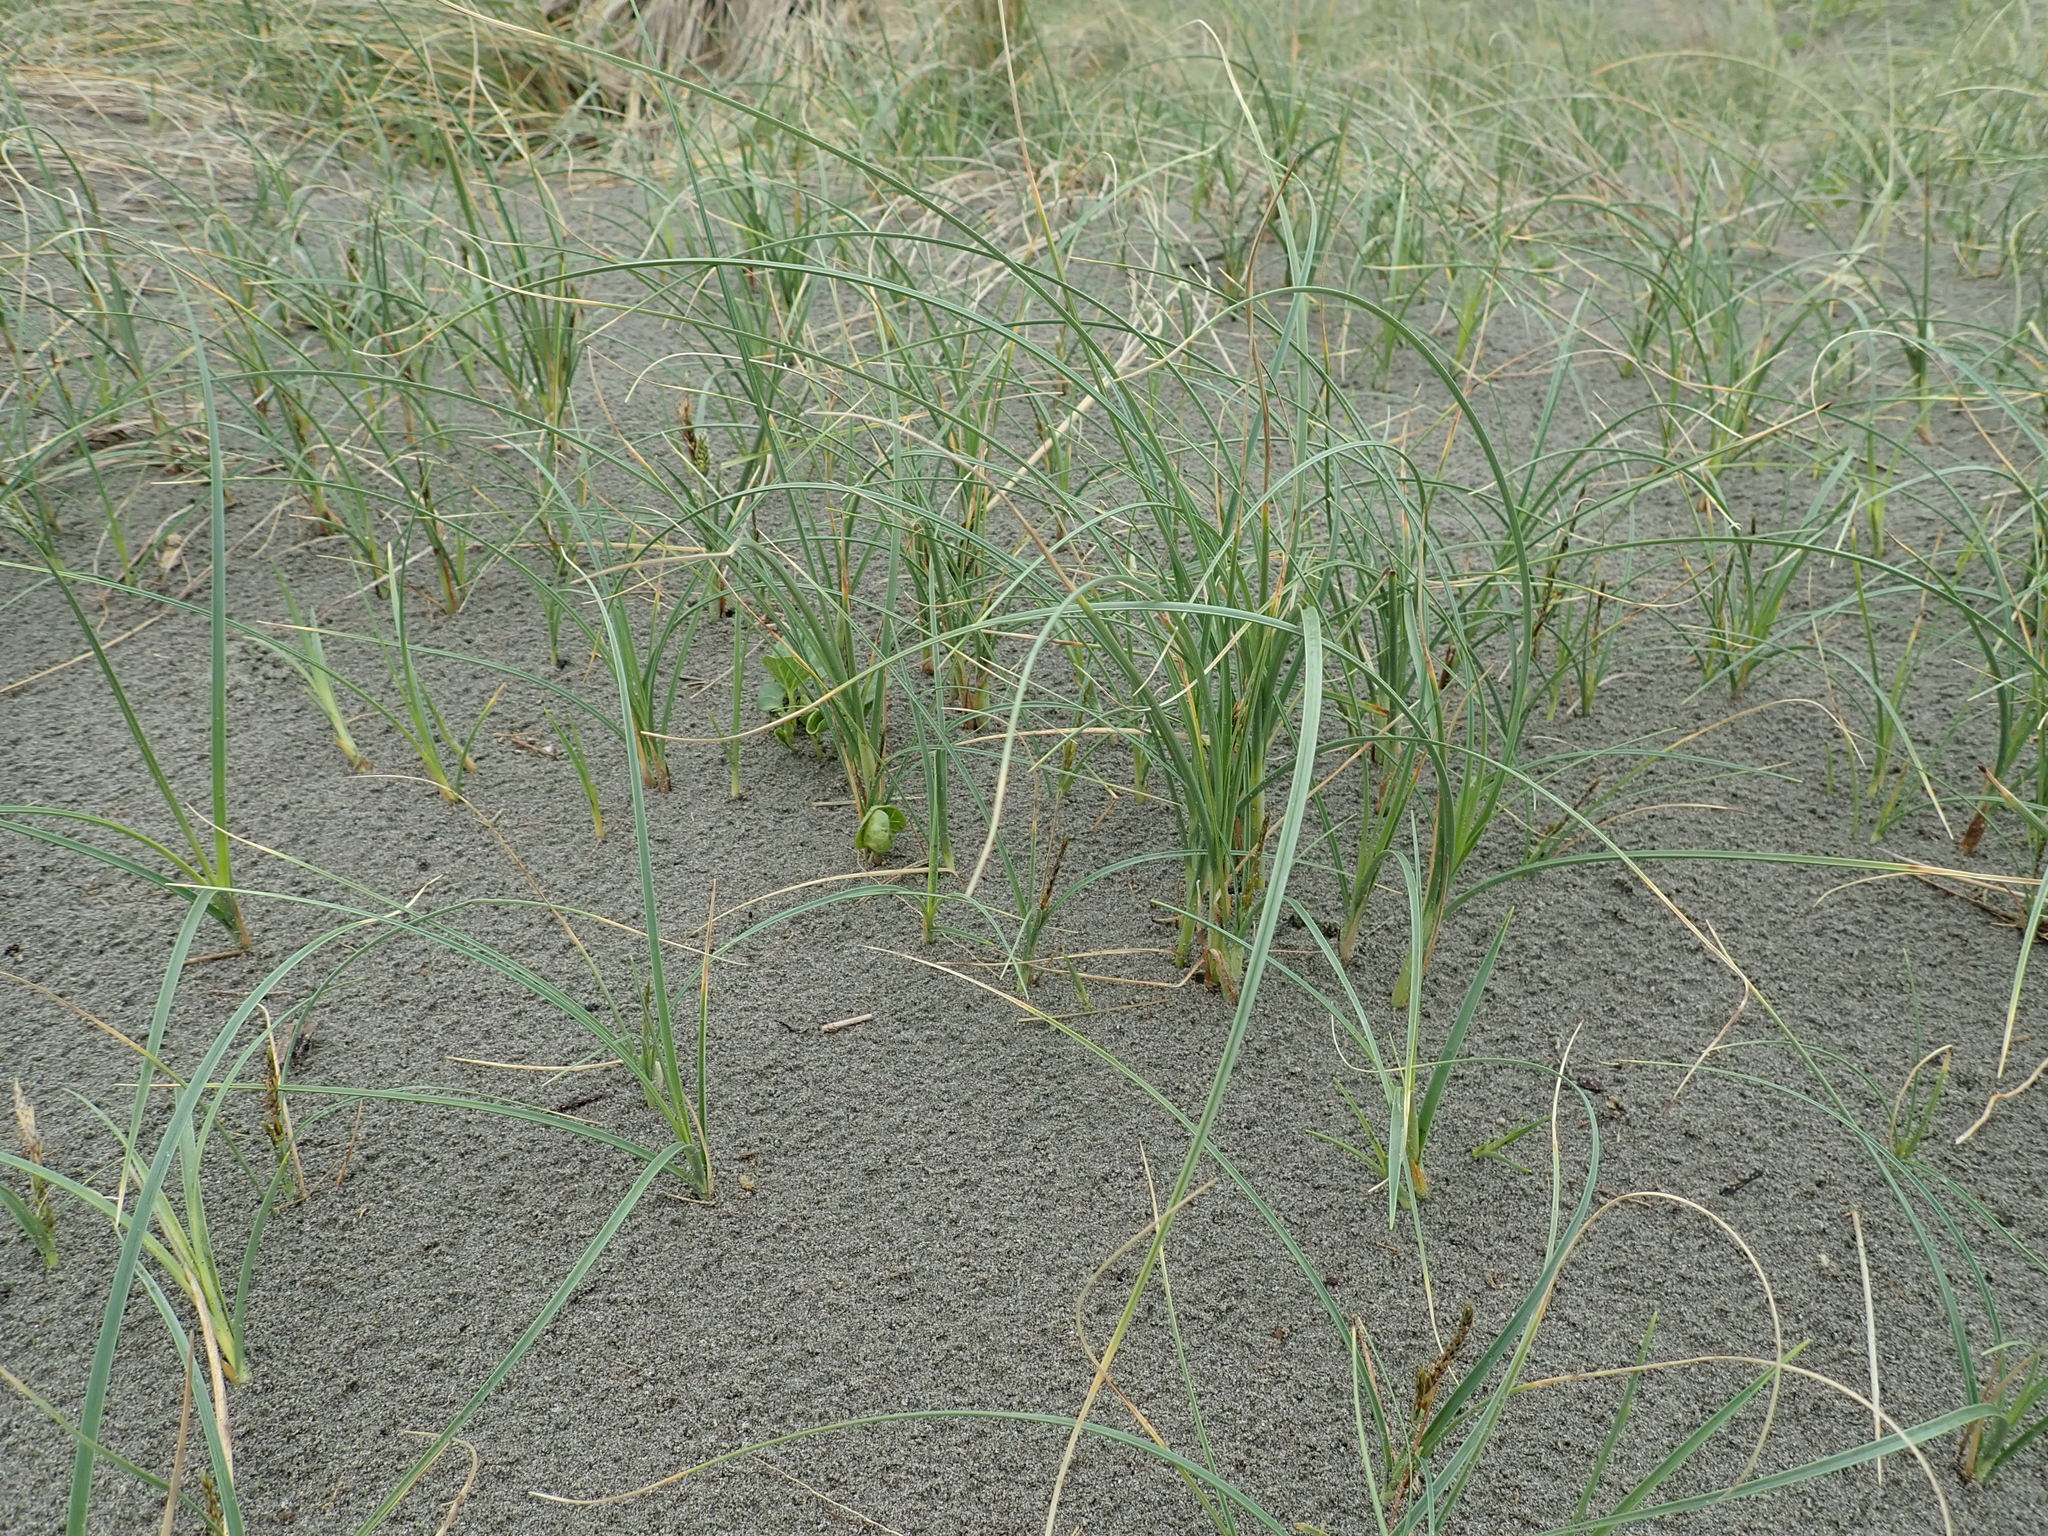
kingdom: Plantae
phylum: Tracheophyta
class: Liliopsida
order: Poales
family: Cyperaceae
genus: Carex
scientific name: Carex pumila
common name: Dwarf sedge
